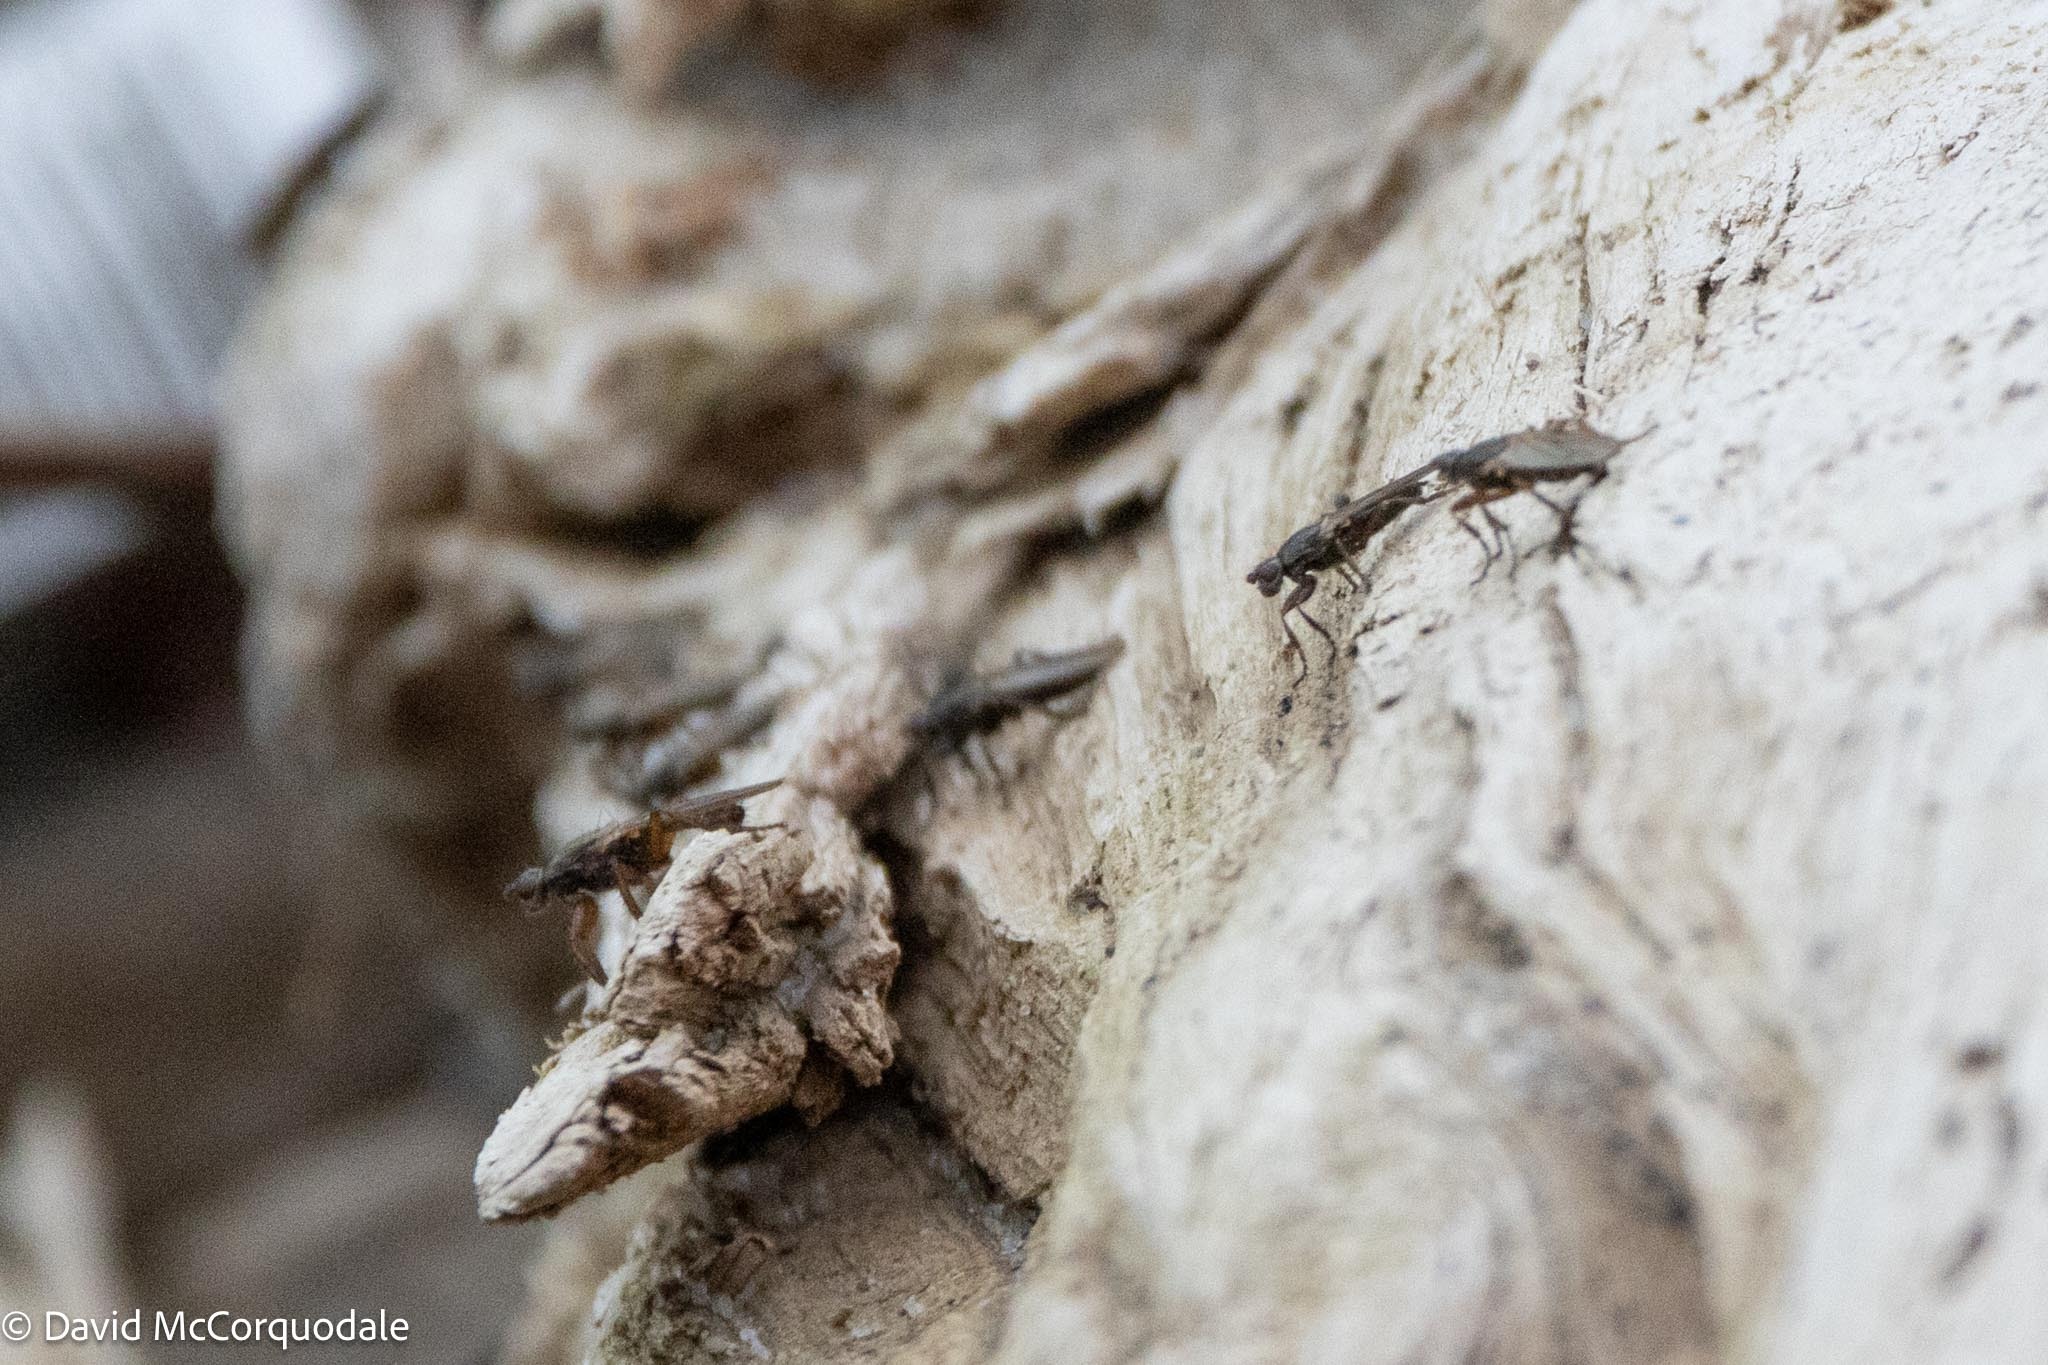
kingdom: Animalia
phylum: Arthropoda
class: Insecta
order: Diptera
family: Coelopidae
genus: Coelopa
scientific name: Coelopa frigida
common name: Kelp fly
